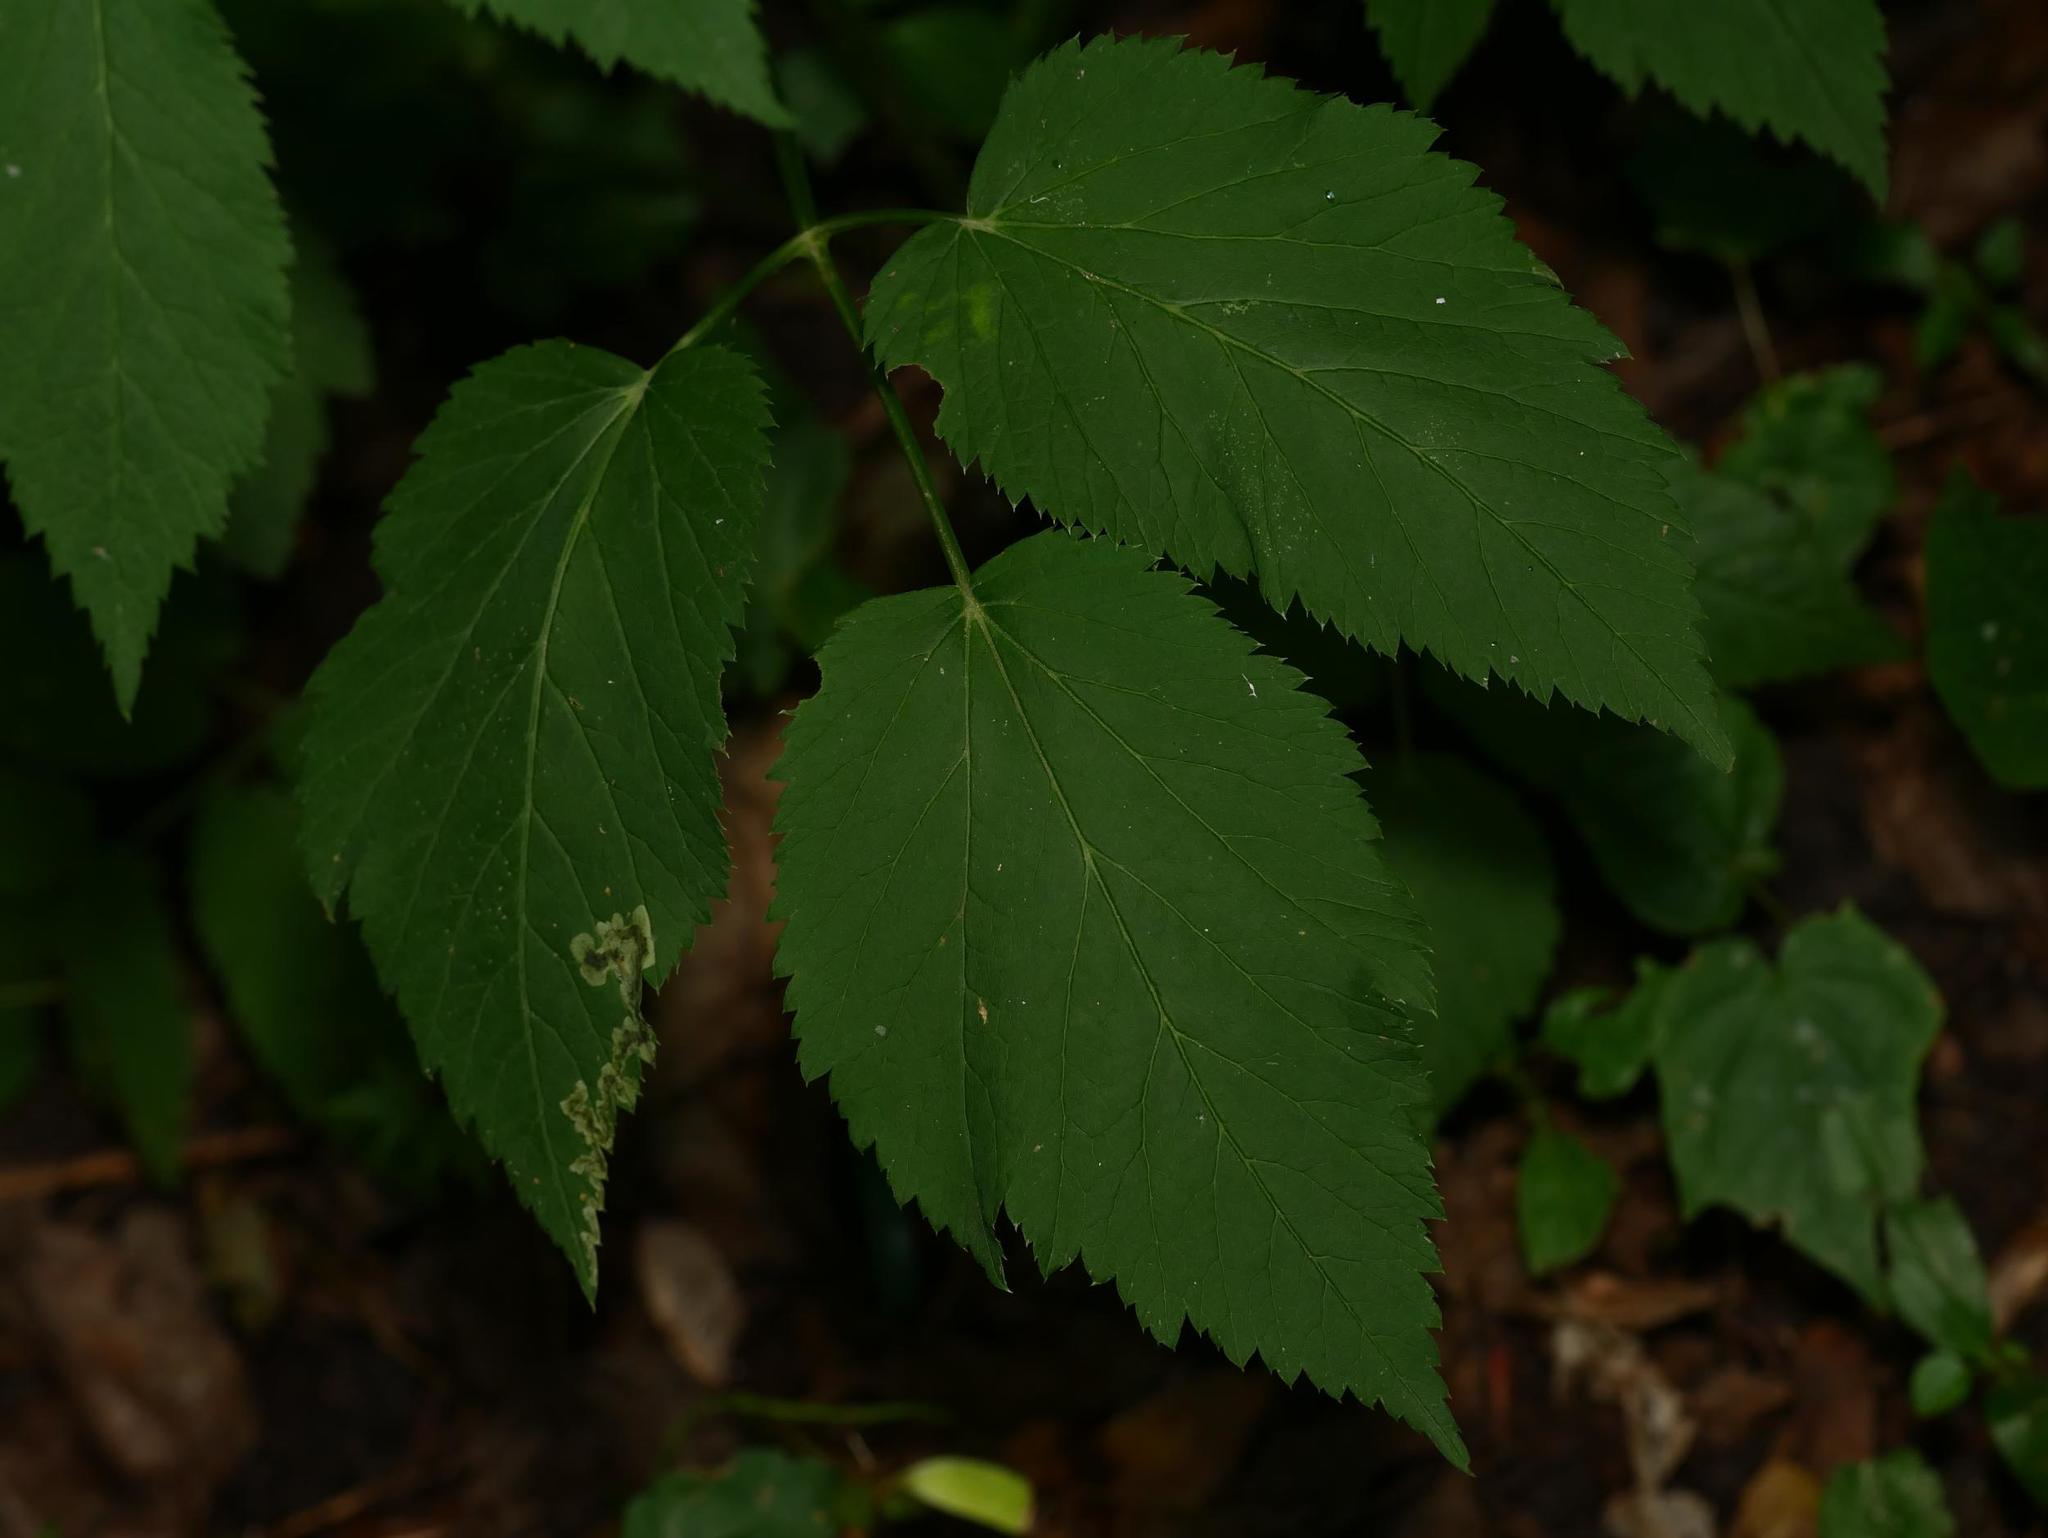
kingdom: Plantae
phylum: Tracheophyta
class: Magnoliopsida
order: Apiales
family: Apiaceae
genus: Aegopodium
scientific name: Aegopodium podagraria
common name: Ground-elder
